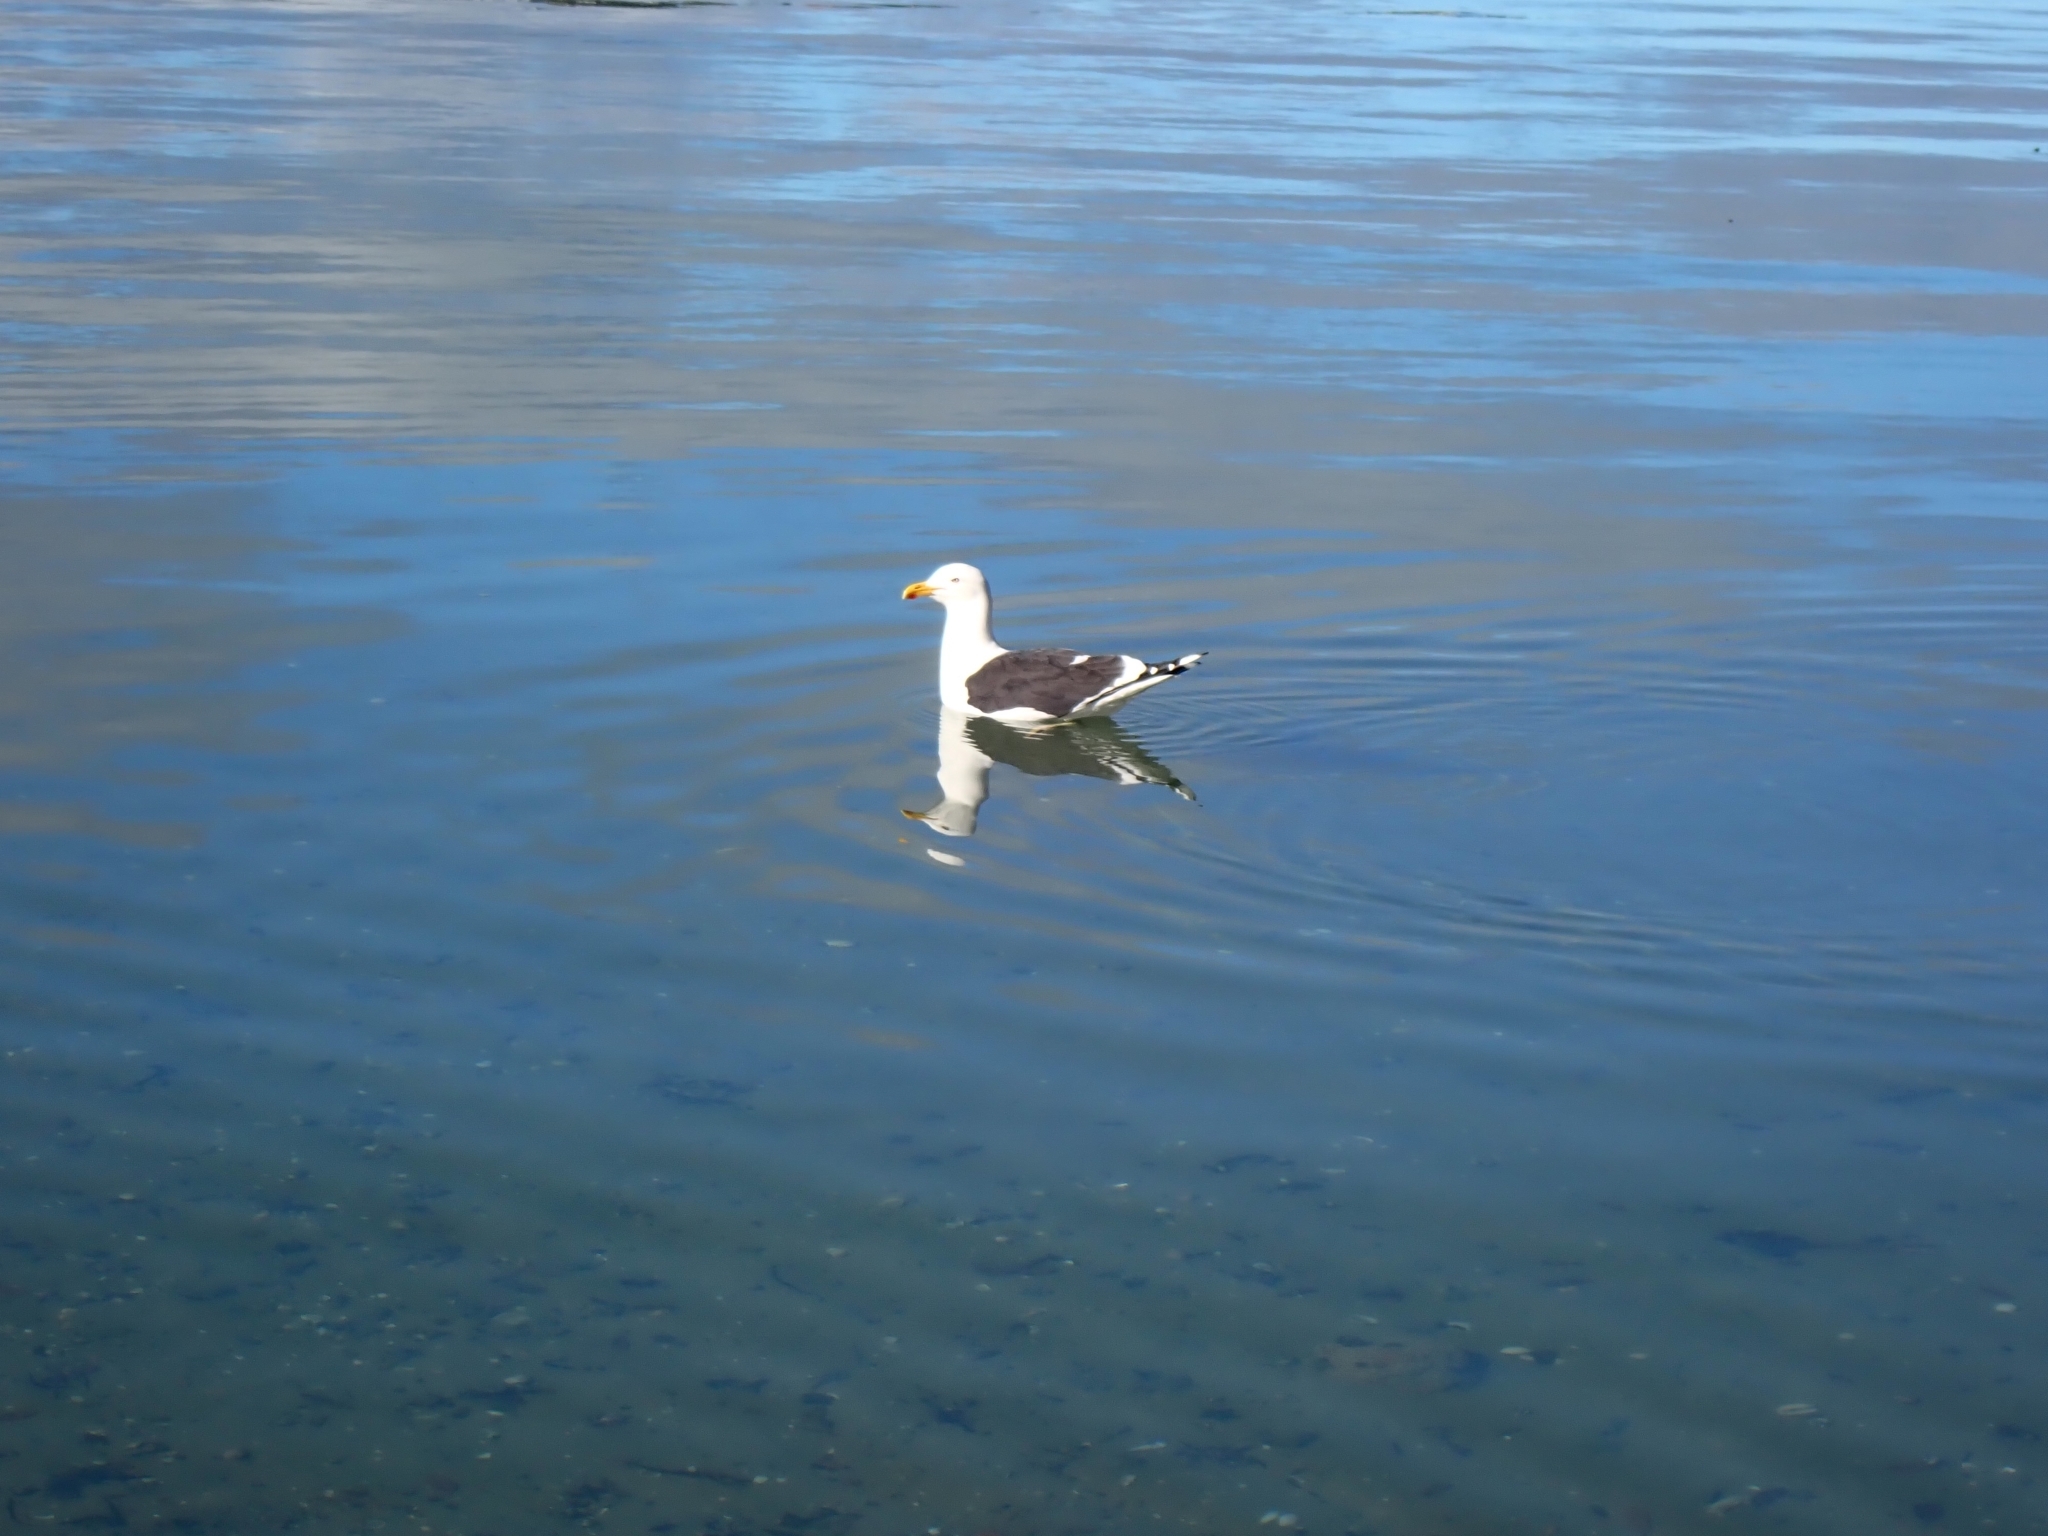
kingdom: Animalia
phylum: Chordata
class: Aves
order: Charadriiformes
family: Laridae
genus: Larus
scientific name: Larus dominicanus
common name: Kelp gull
